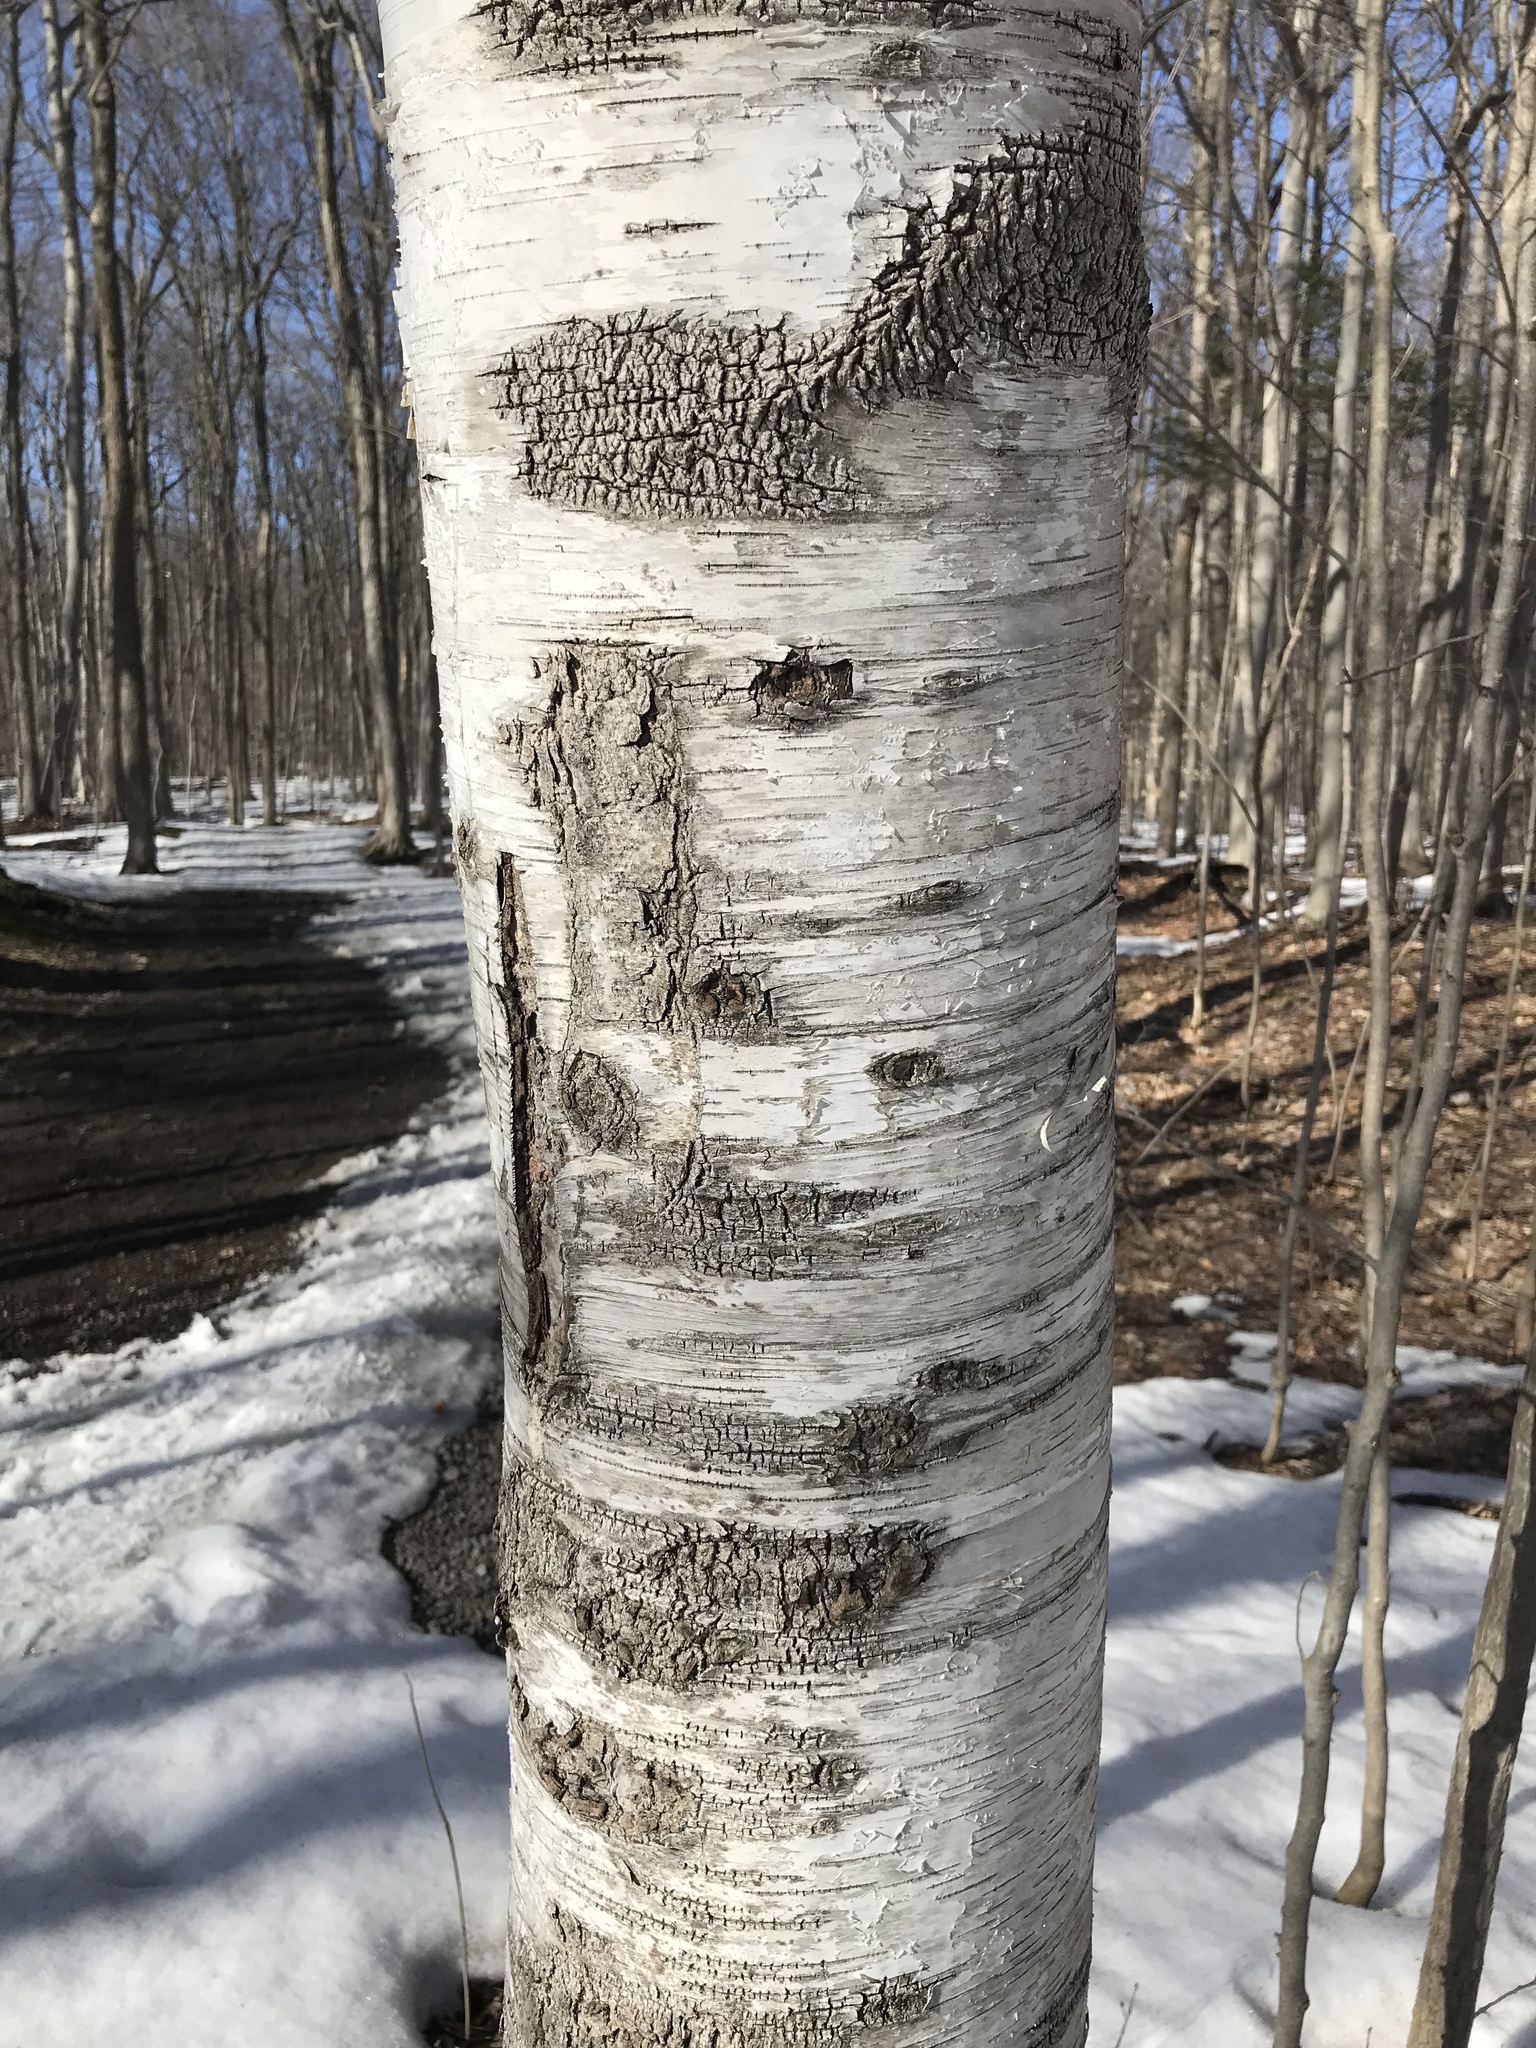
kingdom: Plantae
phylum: Tracheophyta
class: Magnoliopsida
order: Fagales
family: Betulaceae
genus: Betula
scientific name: Betula papyrifera
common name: Paper birch
